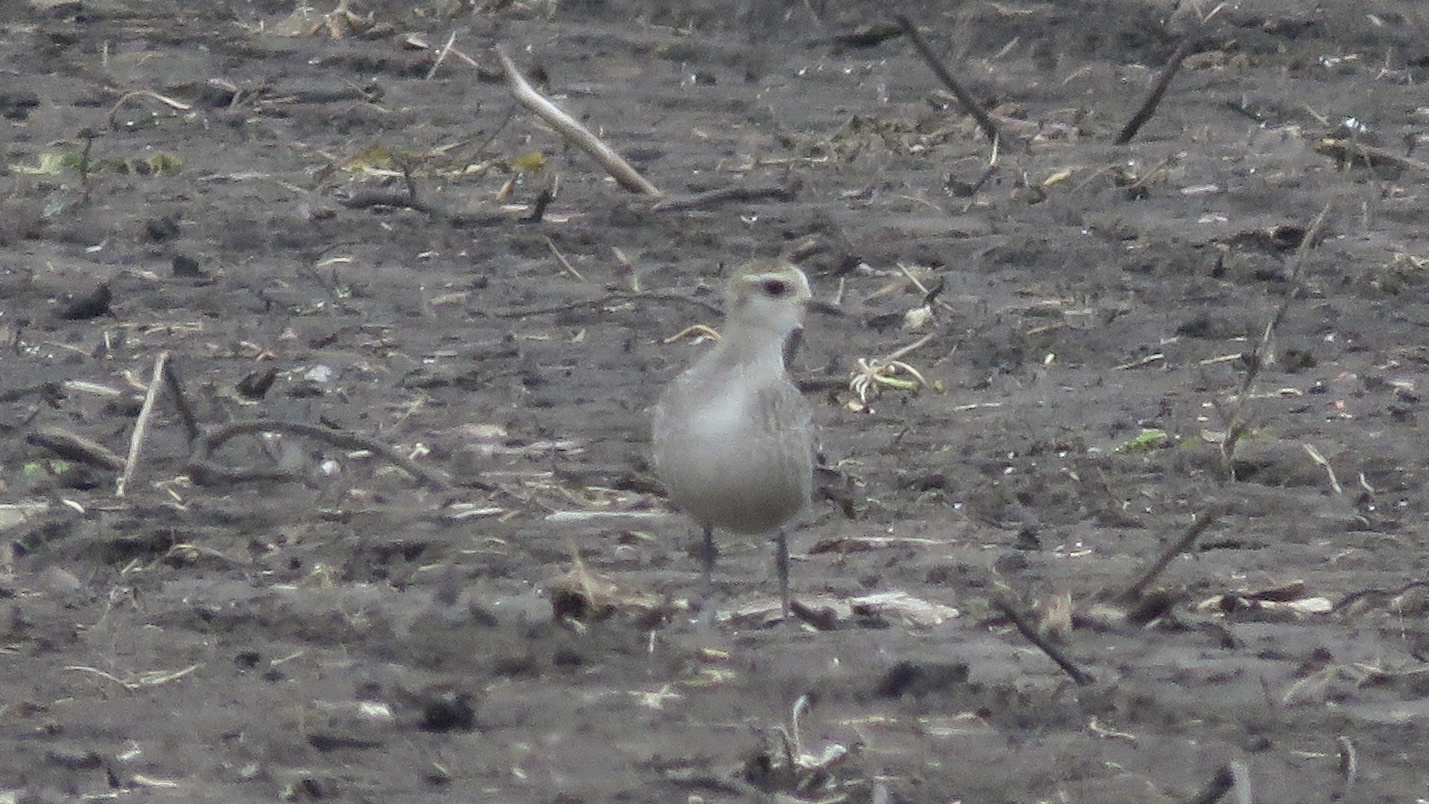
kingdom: Animalia
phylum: Chordata
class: Aves
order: Charadriiformes
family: Charadriidae
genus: Pluvialis
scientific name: Pluvialis dominica
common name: American golden plover
